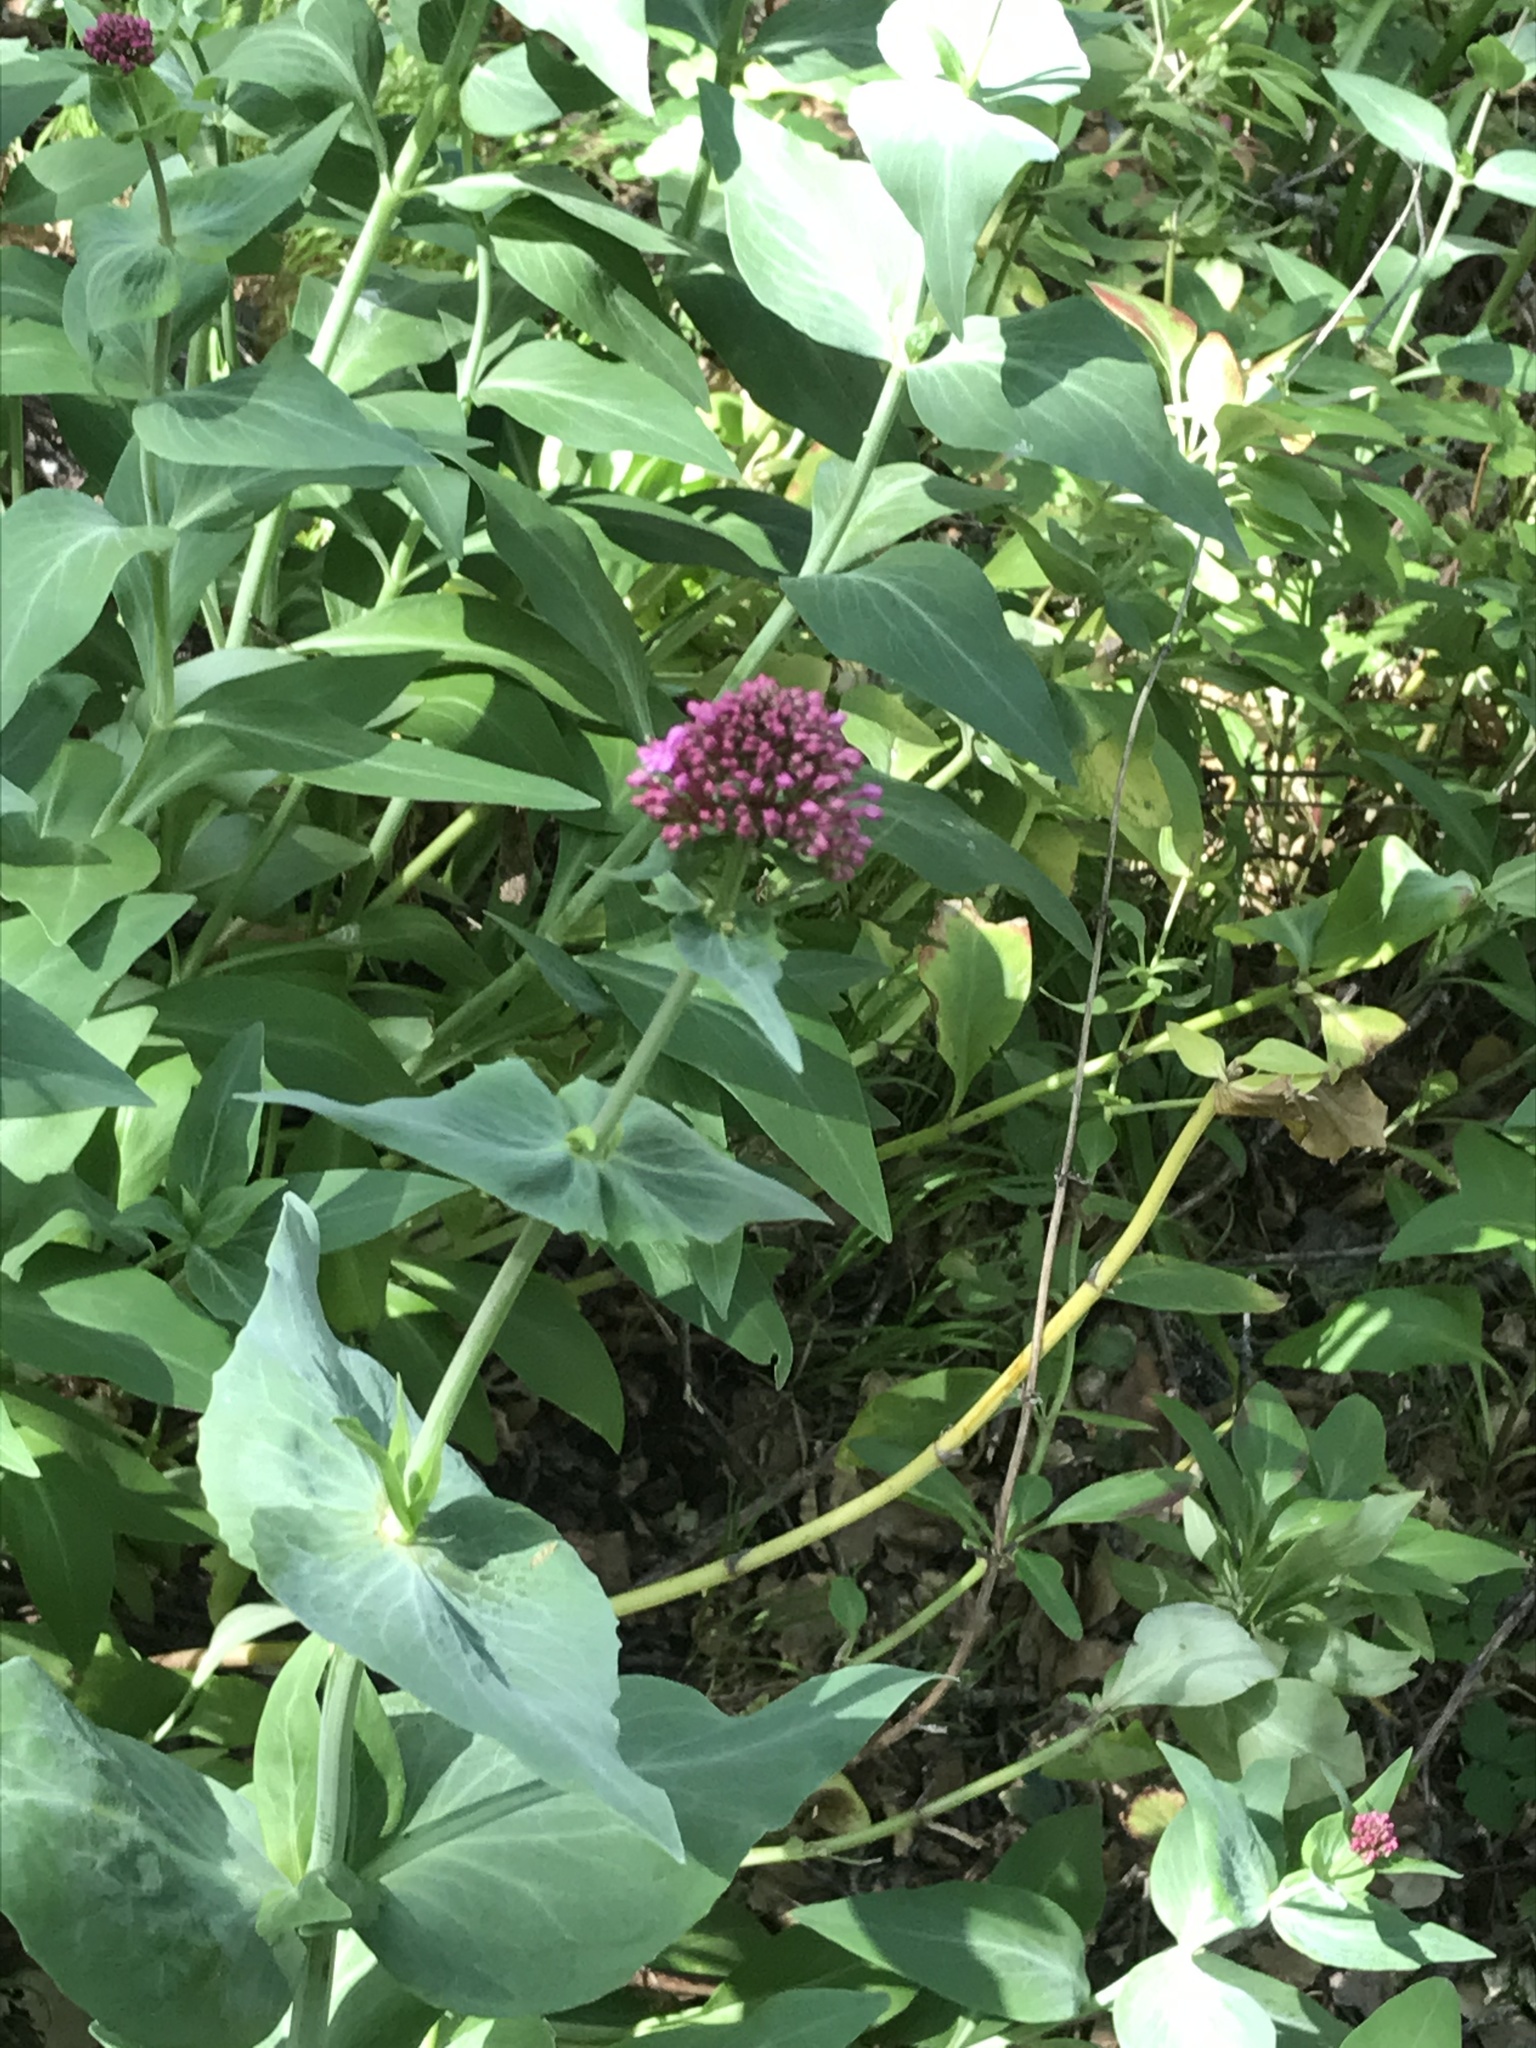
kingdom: Plantae
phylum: Tracheophyta
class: Magnoliopsida
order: Dipsacales
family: Caprifoliaceae
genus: Centranthus
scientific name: Centranthus ruber
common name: Red valerian
